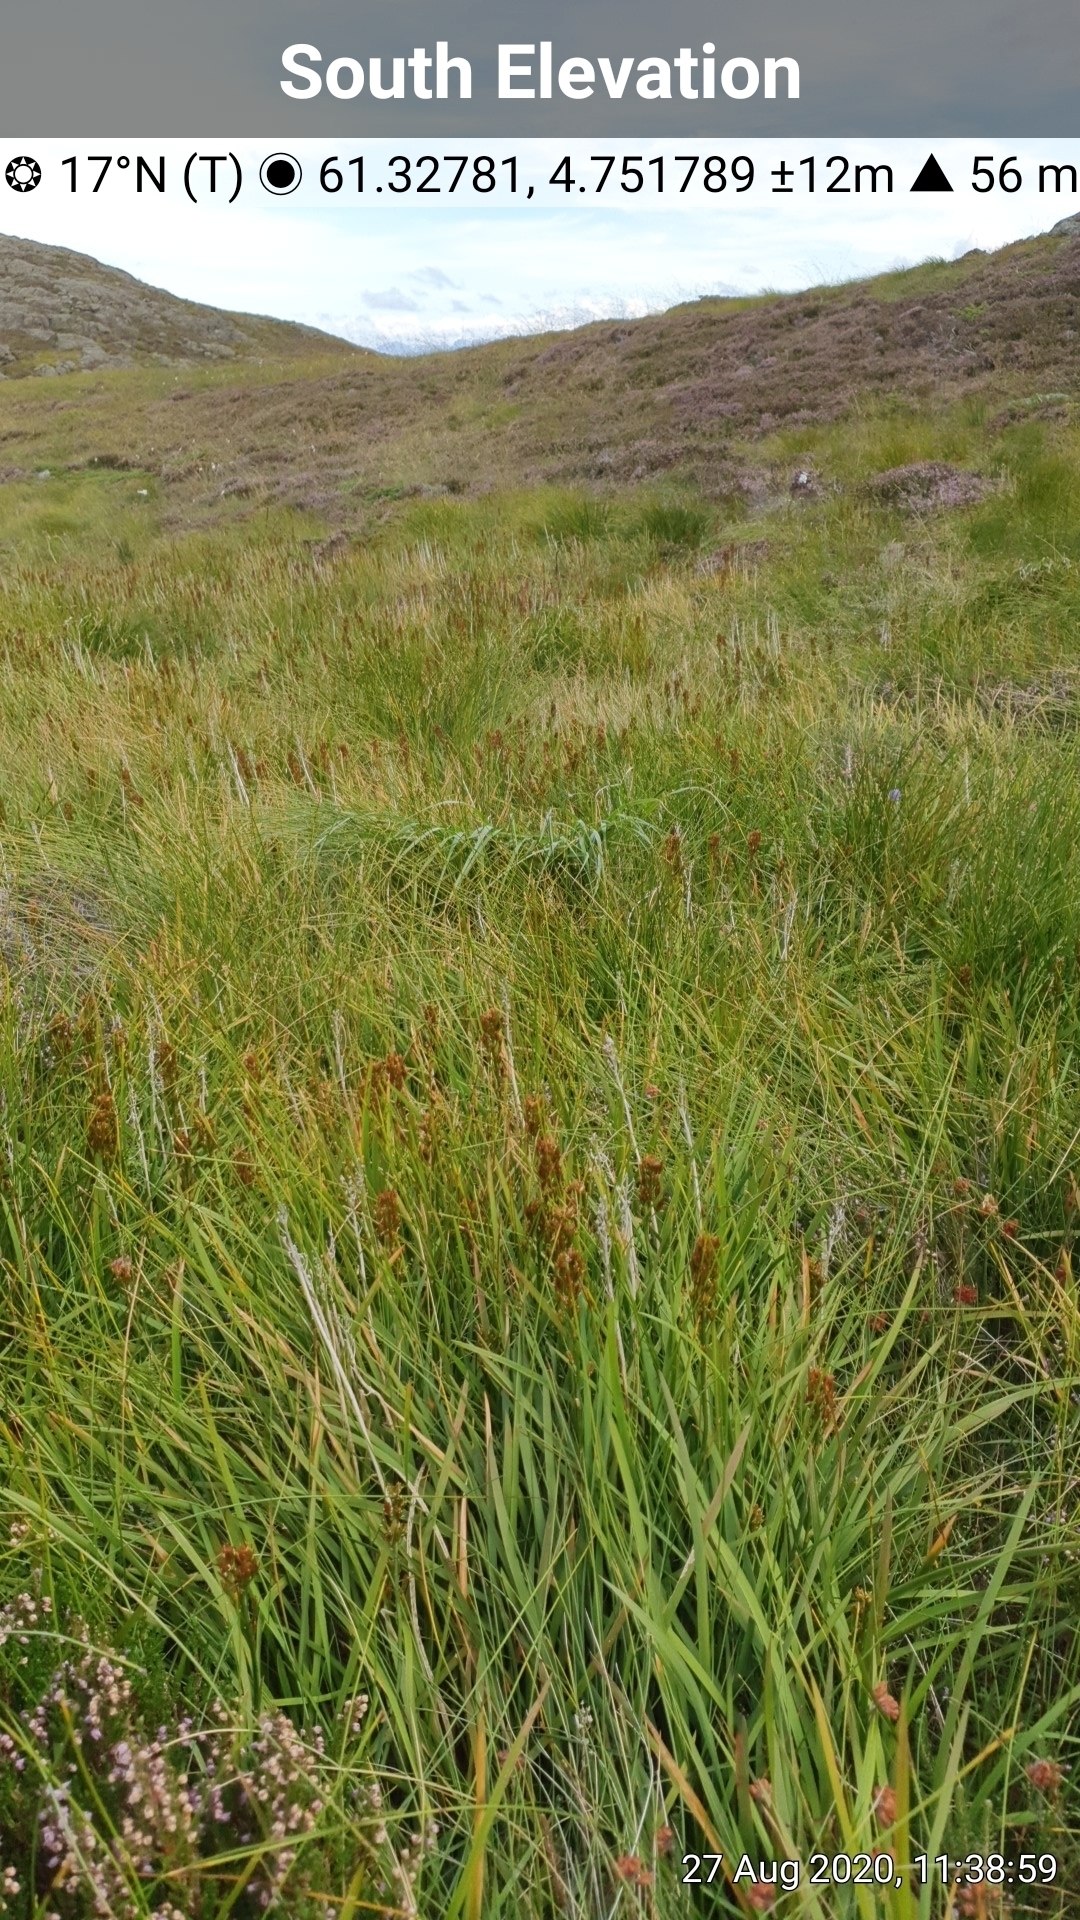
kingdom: Plantae
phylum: Tracheophyta
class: Liliopsida
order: Dioscoreales
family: Nartheciaceae
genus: Narthecium
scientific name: Narthecium ossifragum
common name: Bog asphodel
